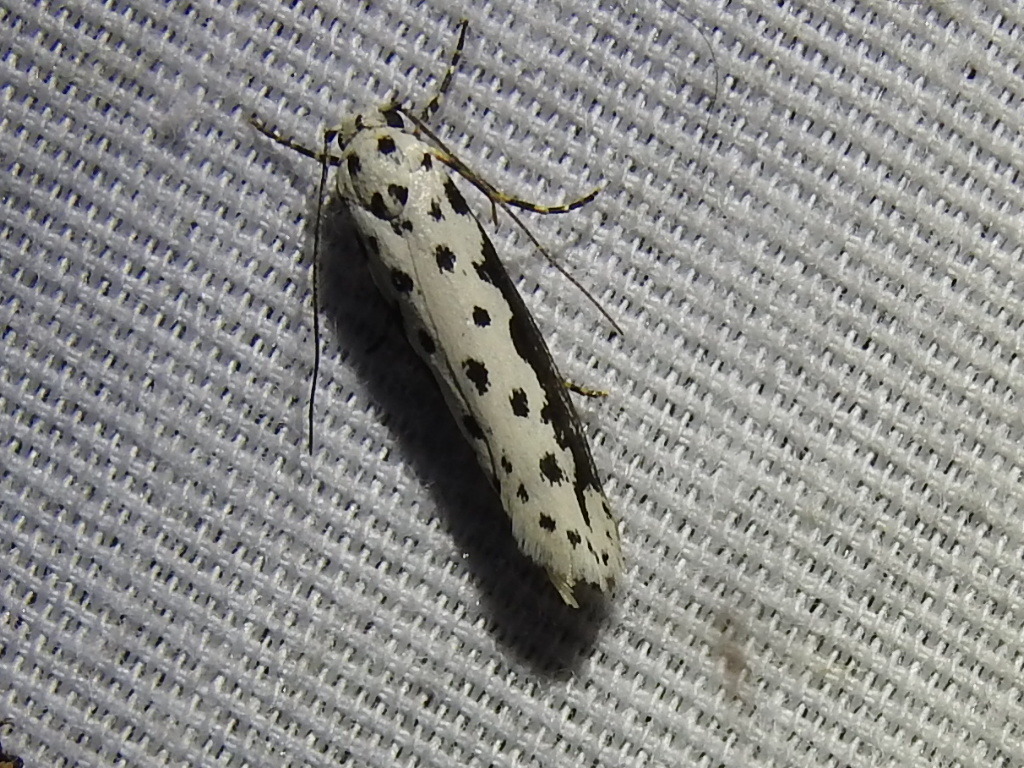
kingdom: Animalia
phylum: Arthropoda
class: Insecta
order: Lepidoptera
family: Ethmiidae
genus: Ethmia
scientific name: Ethmia hagenella
